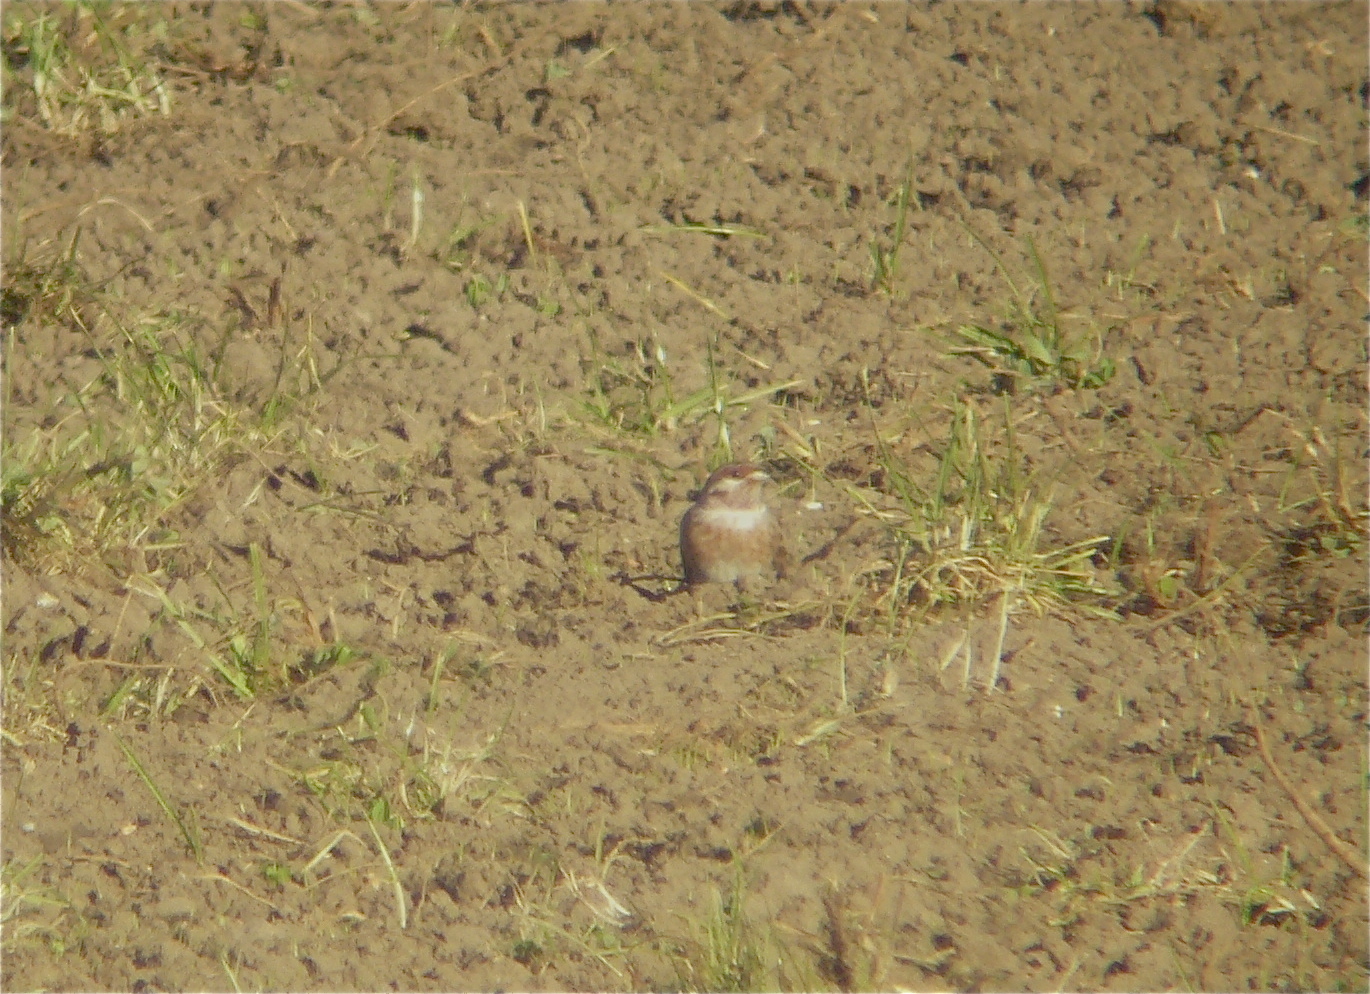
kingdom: Animalia
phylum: Chordata
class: Aves
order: Passeriformes
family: Emberizidae
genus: Emberiza
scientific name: Emberiza leucocephalos
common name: Pine bunting
